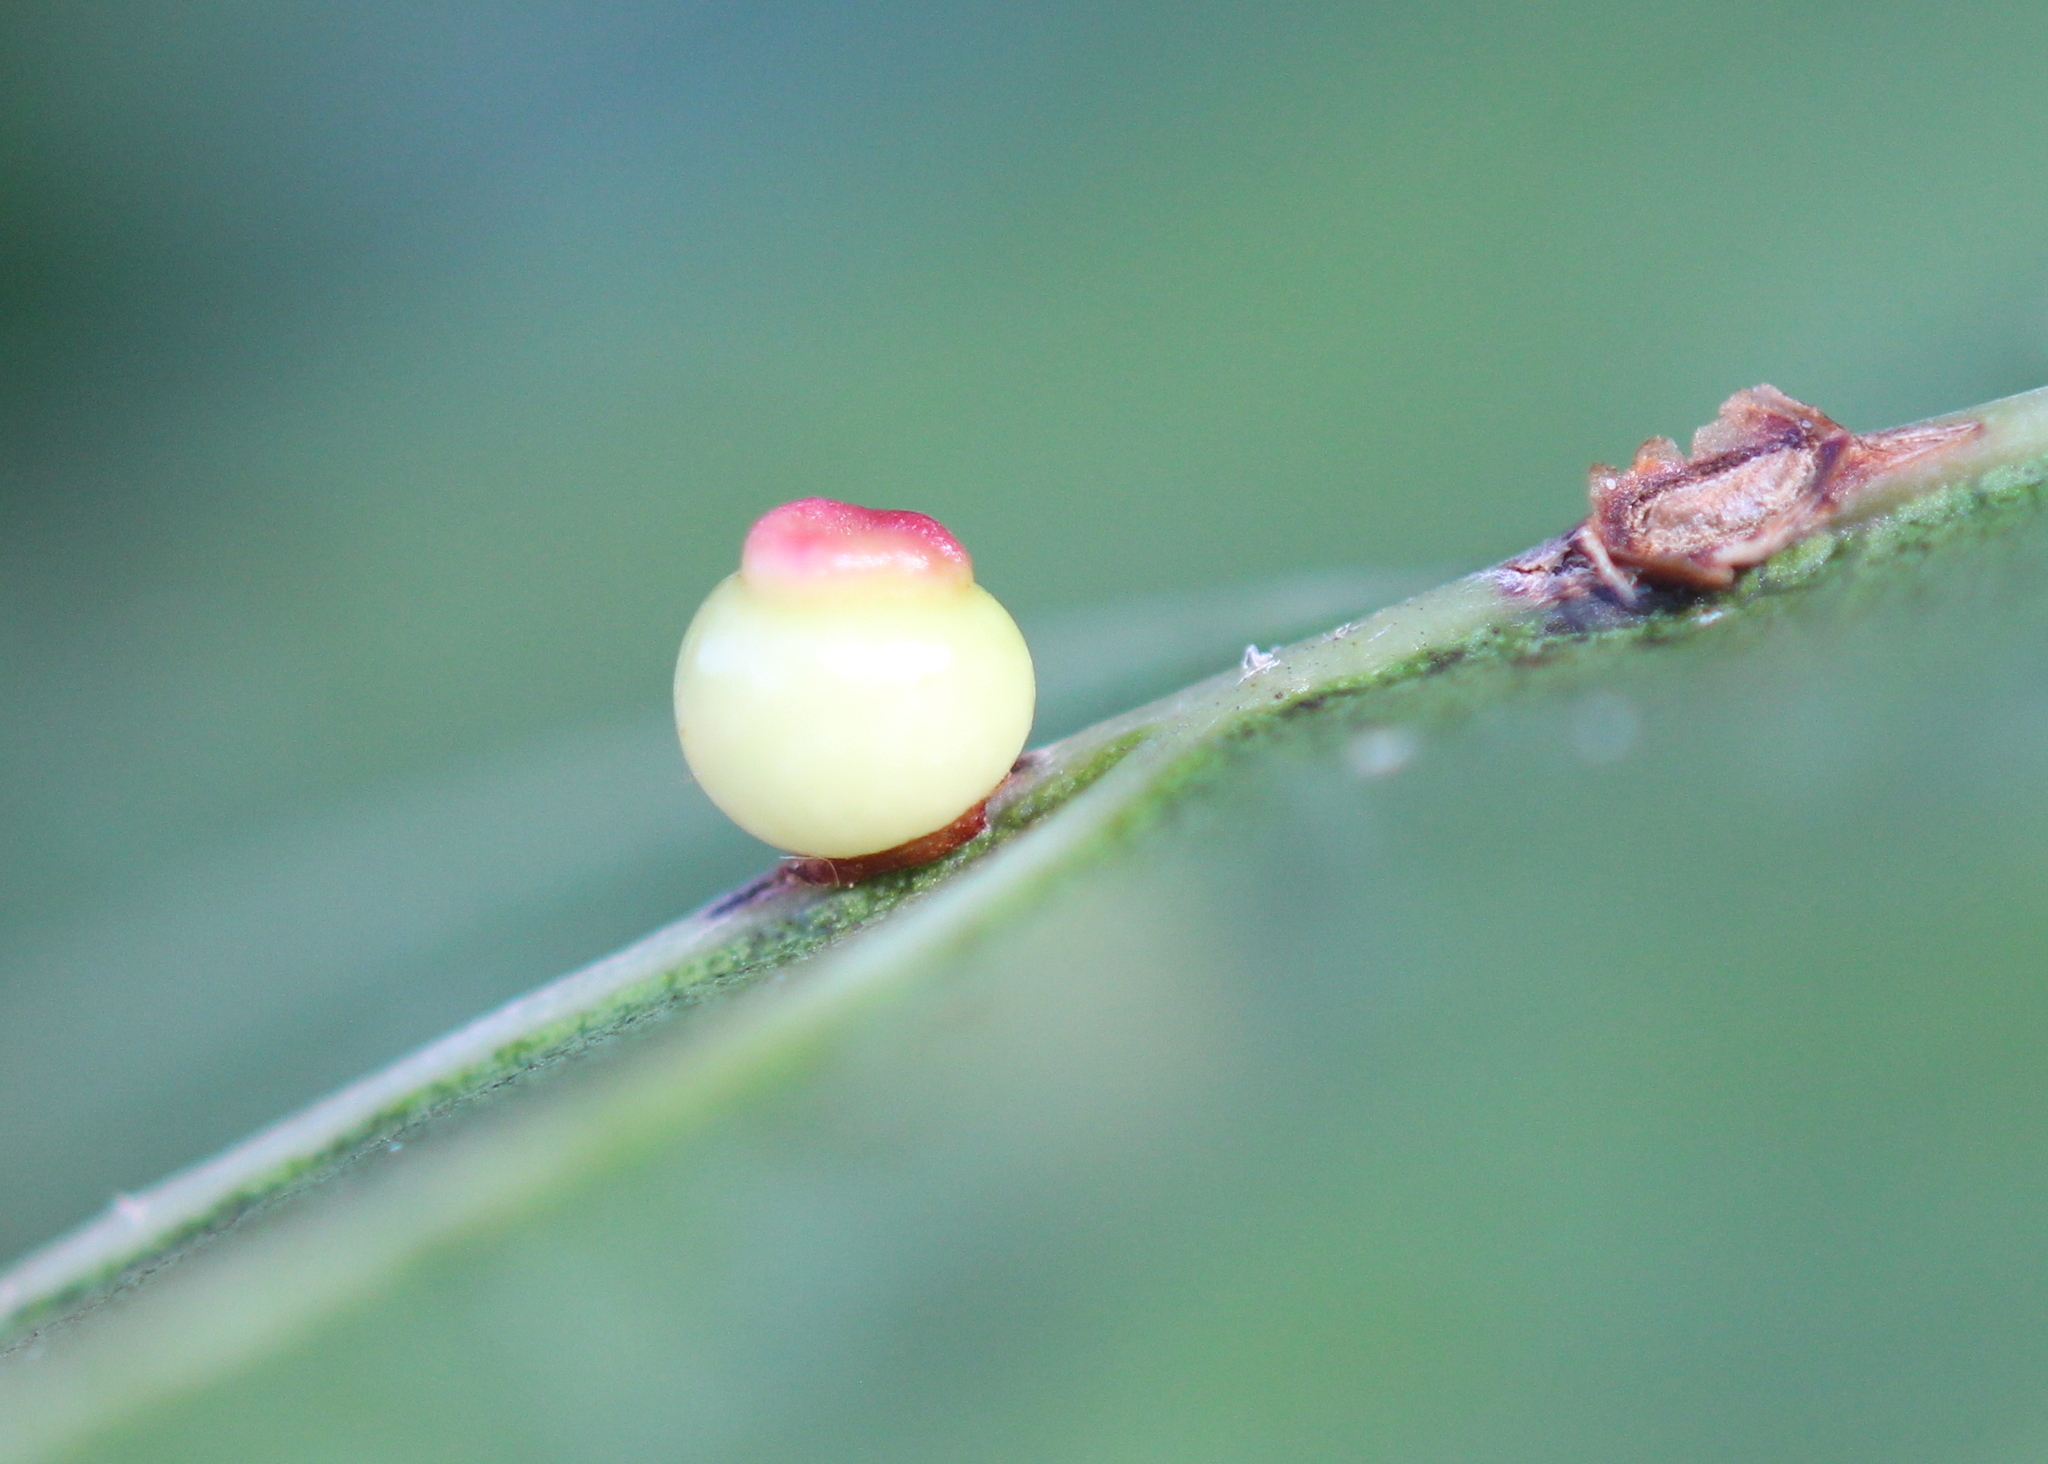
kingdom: Animalia
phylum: Arthropoda
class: Insecta
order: Hymenoptera
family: Cynipidae
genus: Kokkocynips
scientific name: Kokkocynips rileyi
